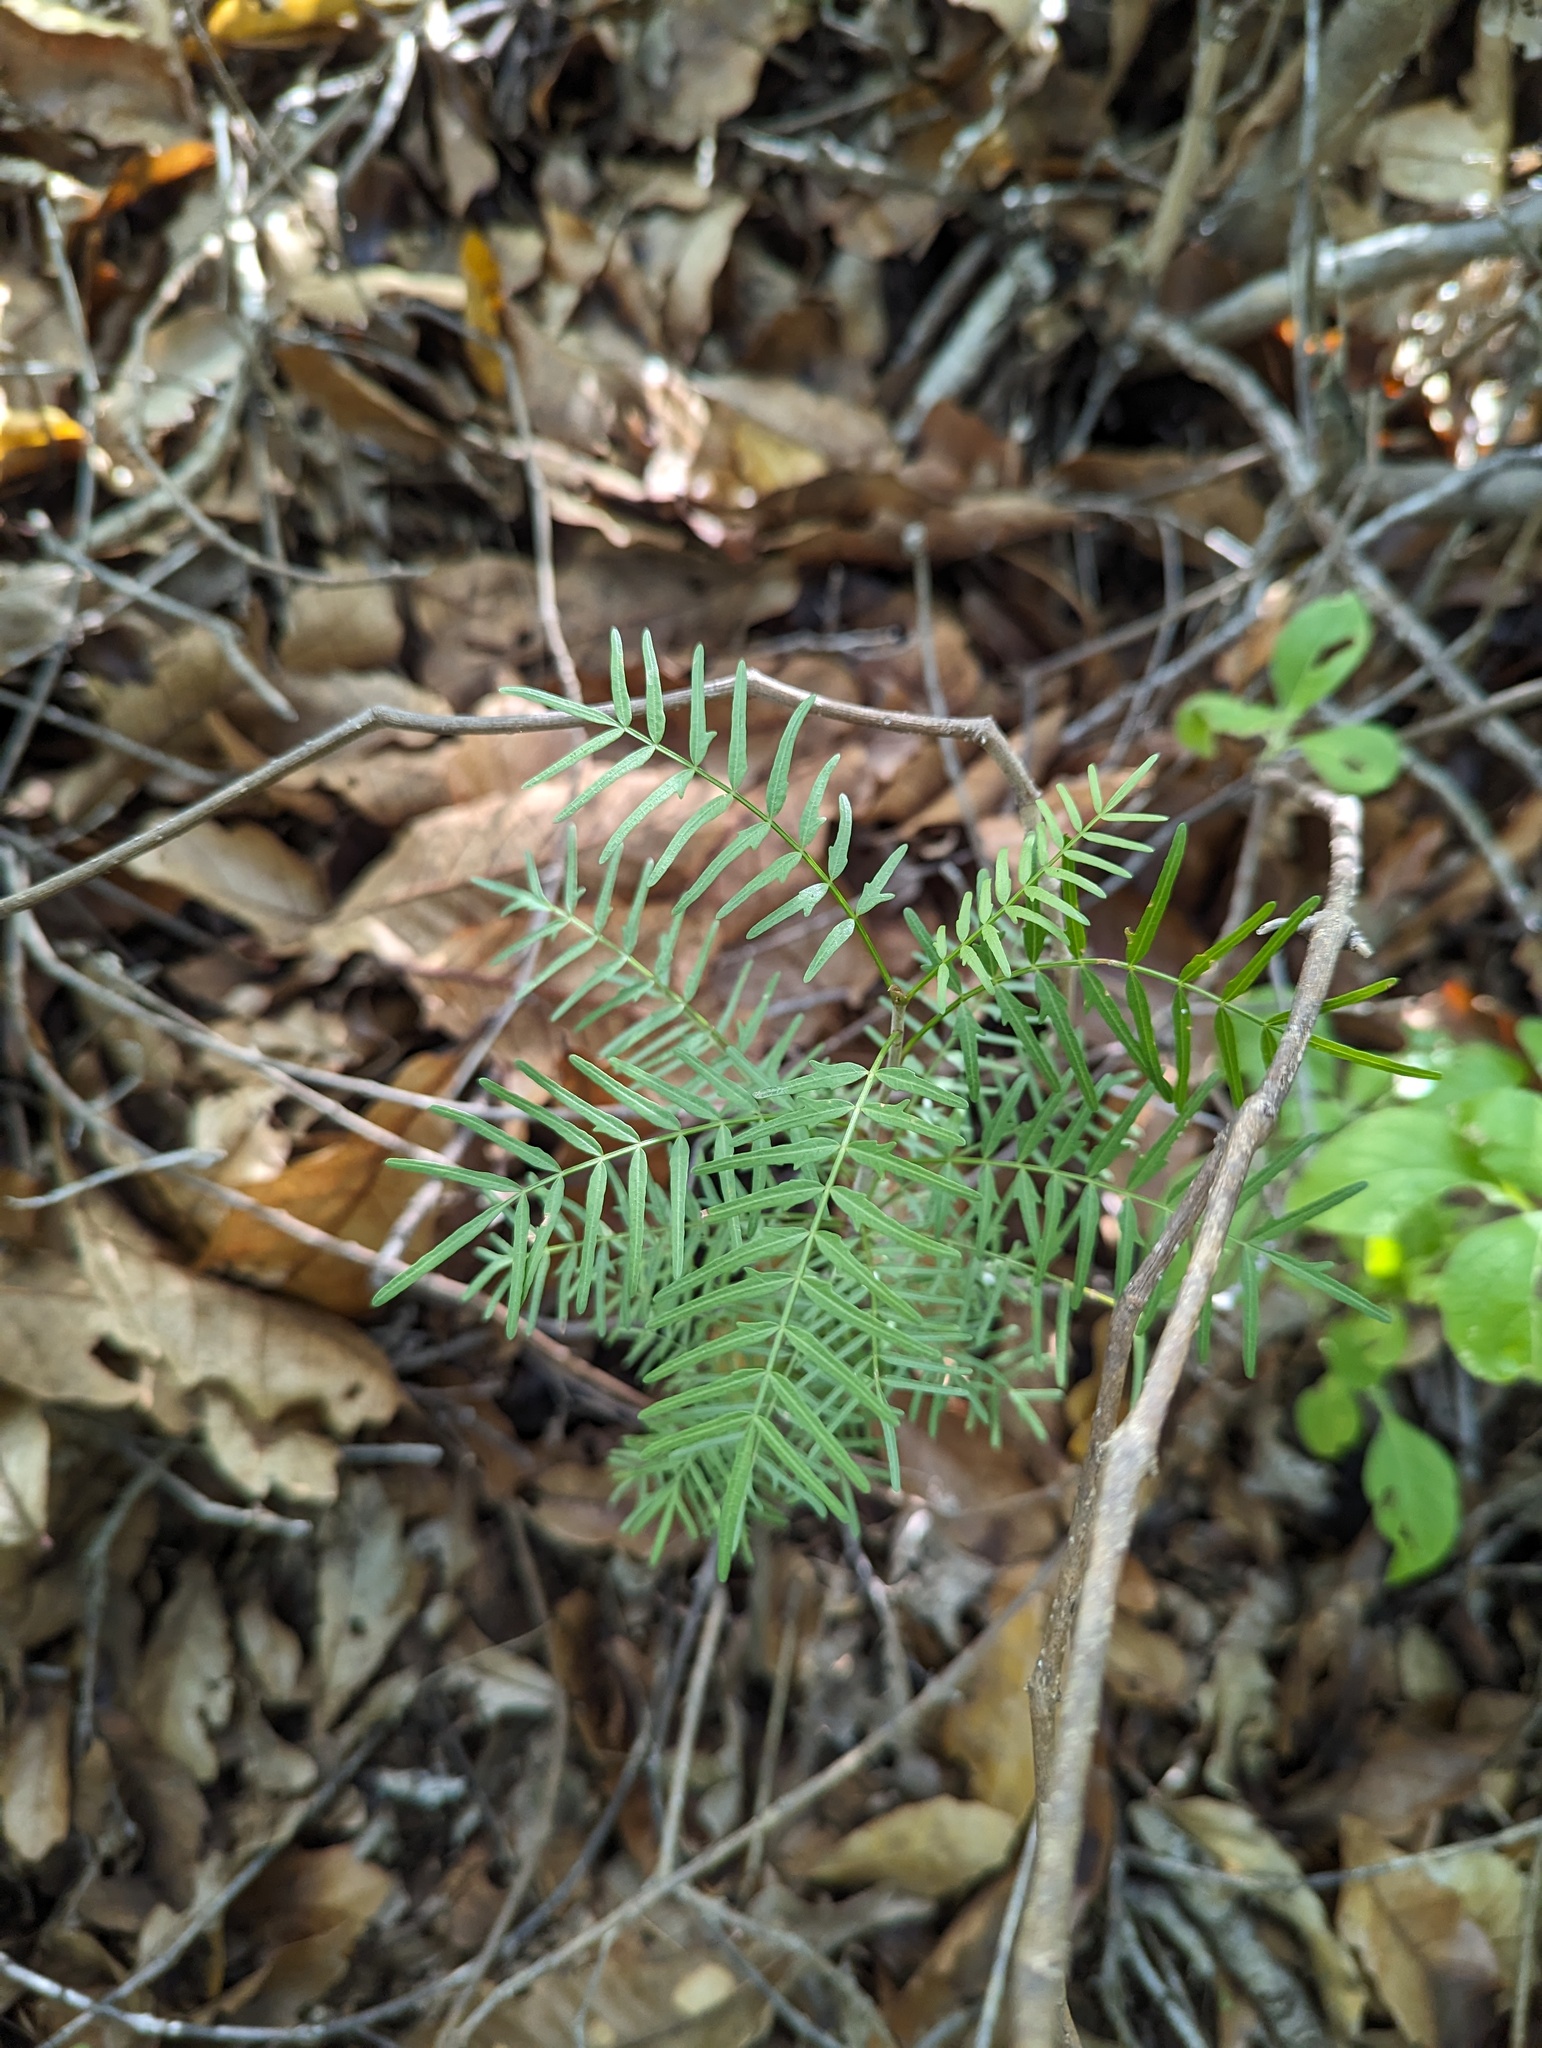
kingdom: Plantae
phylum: Tracheophyta
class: Magnoliopsida
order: Sapindales
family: Burseraceae
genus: Bursera
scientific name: Bursera microphylla
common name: Elephant tree
